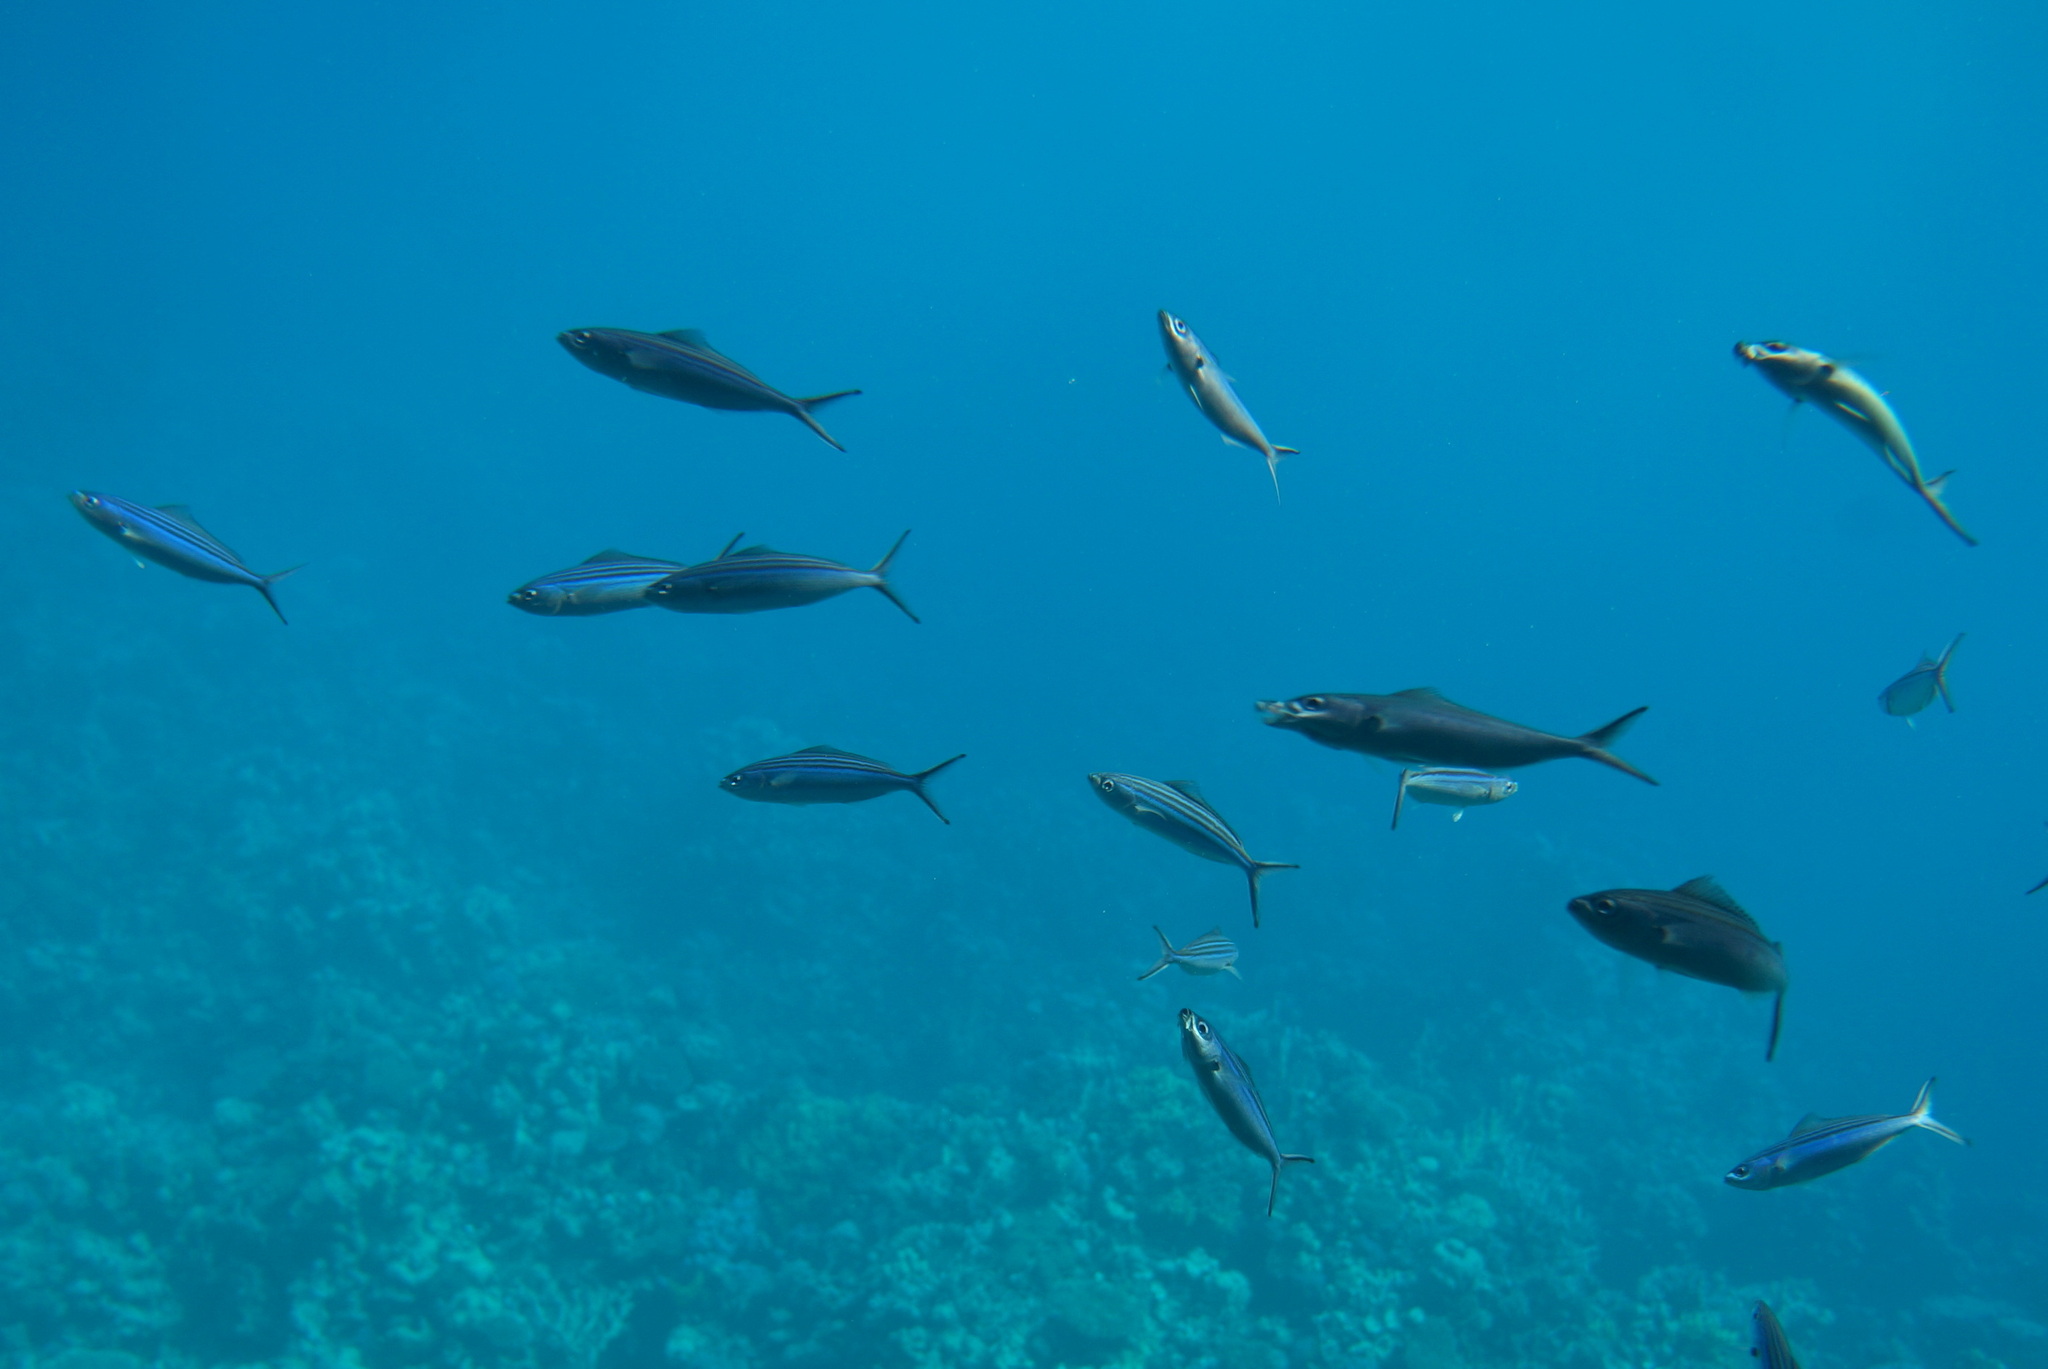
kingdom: Animalia
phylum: Chordata
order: Perciformes
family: Caesionidae
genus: Caesio
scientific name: Caesio striata
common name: Striated fusilier
